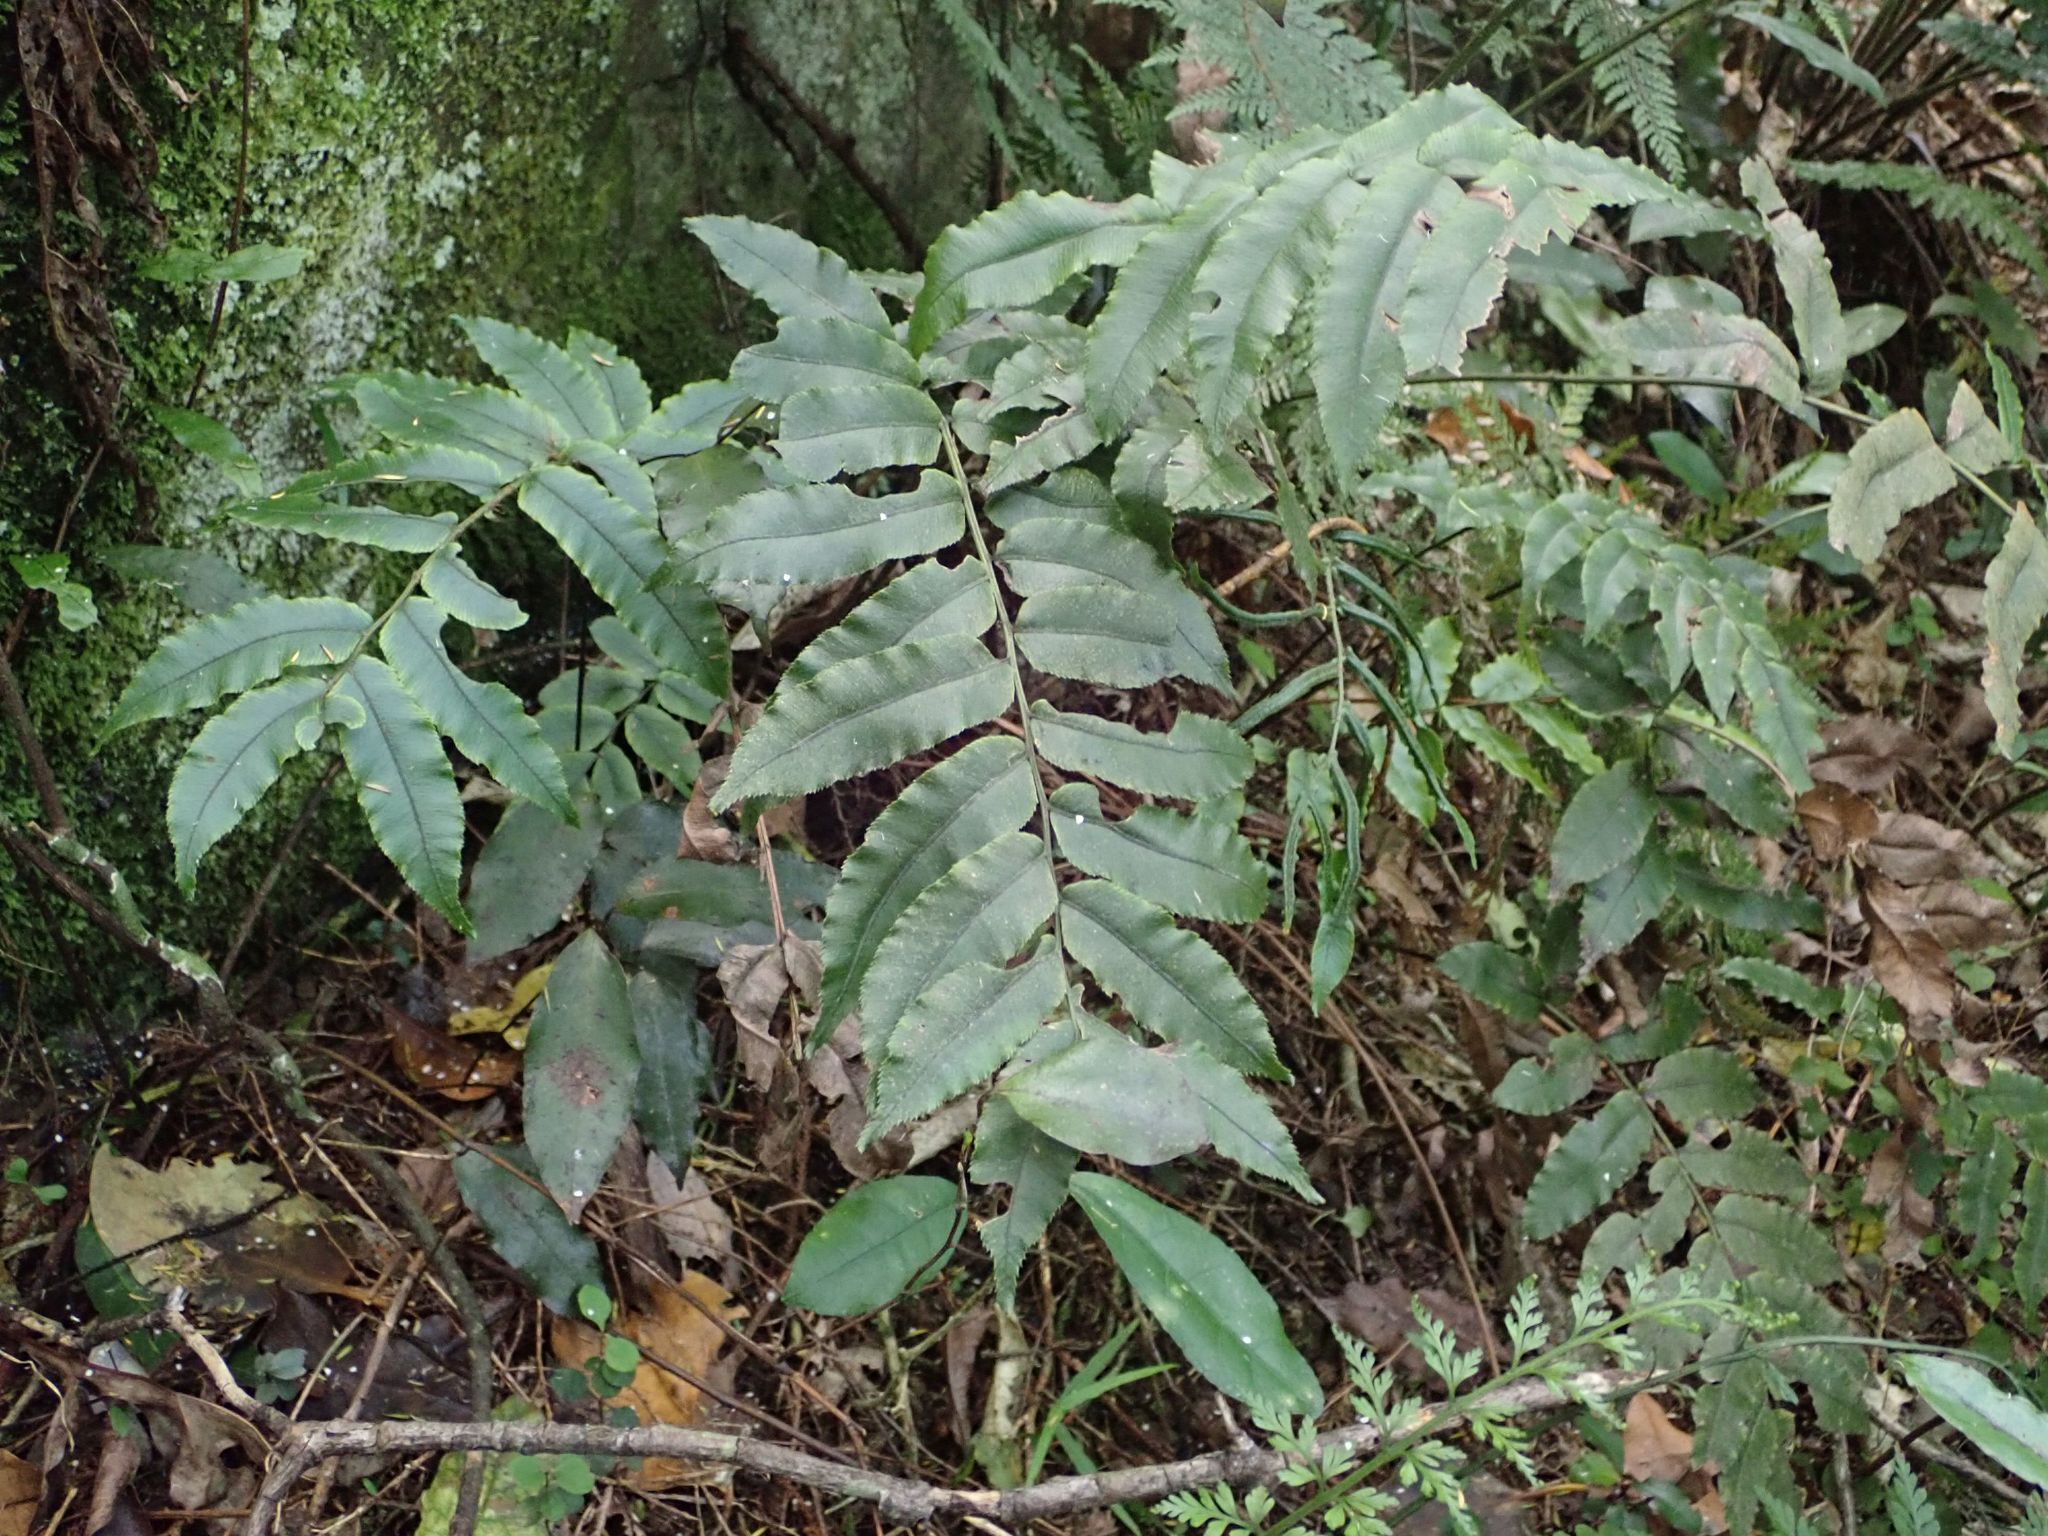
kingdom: Plantae
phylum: Tracheophyta
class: Polypodiopsida
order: Polypodiales
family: Blechnaceae
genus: Parablechnum
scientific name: Parablechnum procerum
